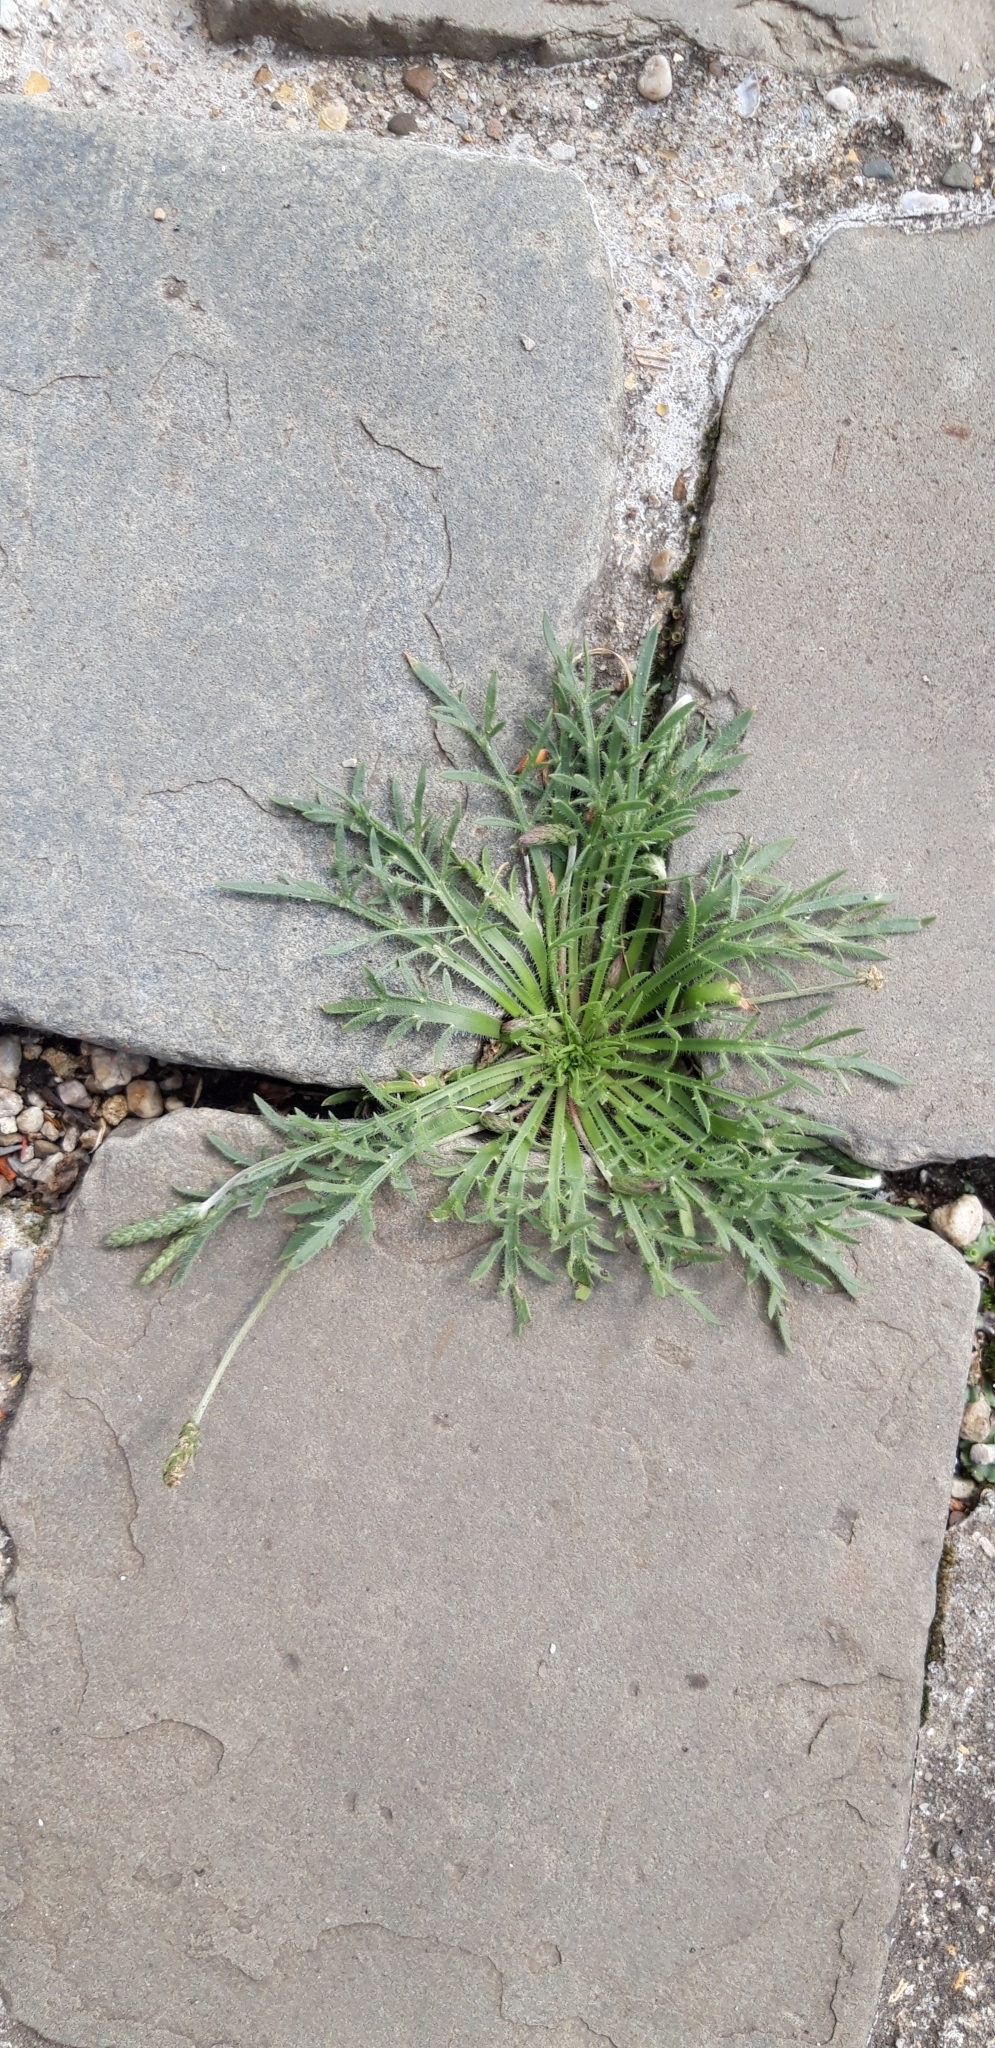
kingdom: Plantae
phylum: Tracheophyta
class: Magnoliopsida
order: Lamiales
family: Plantaginaceae
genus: Plantago
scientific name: Plantago coronopus
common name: Buck's-horn plantain
